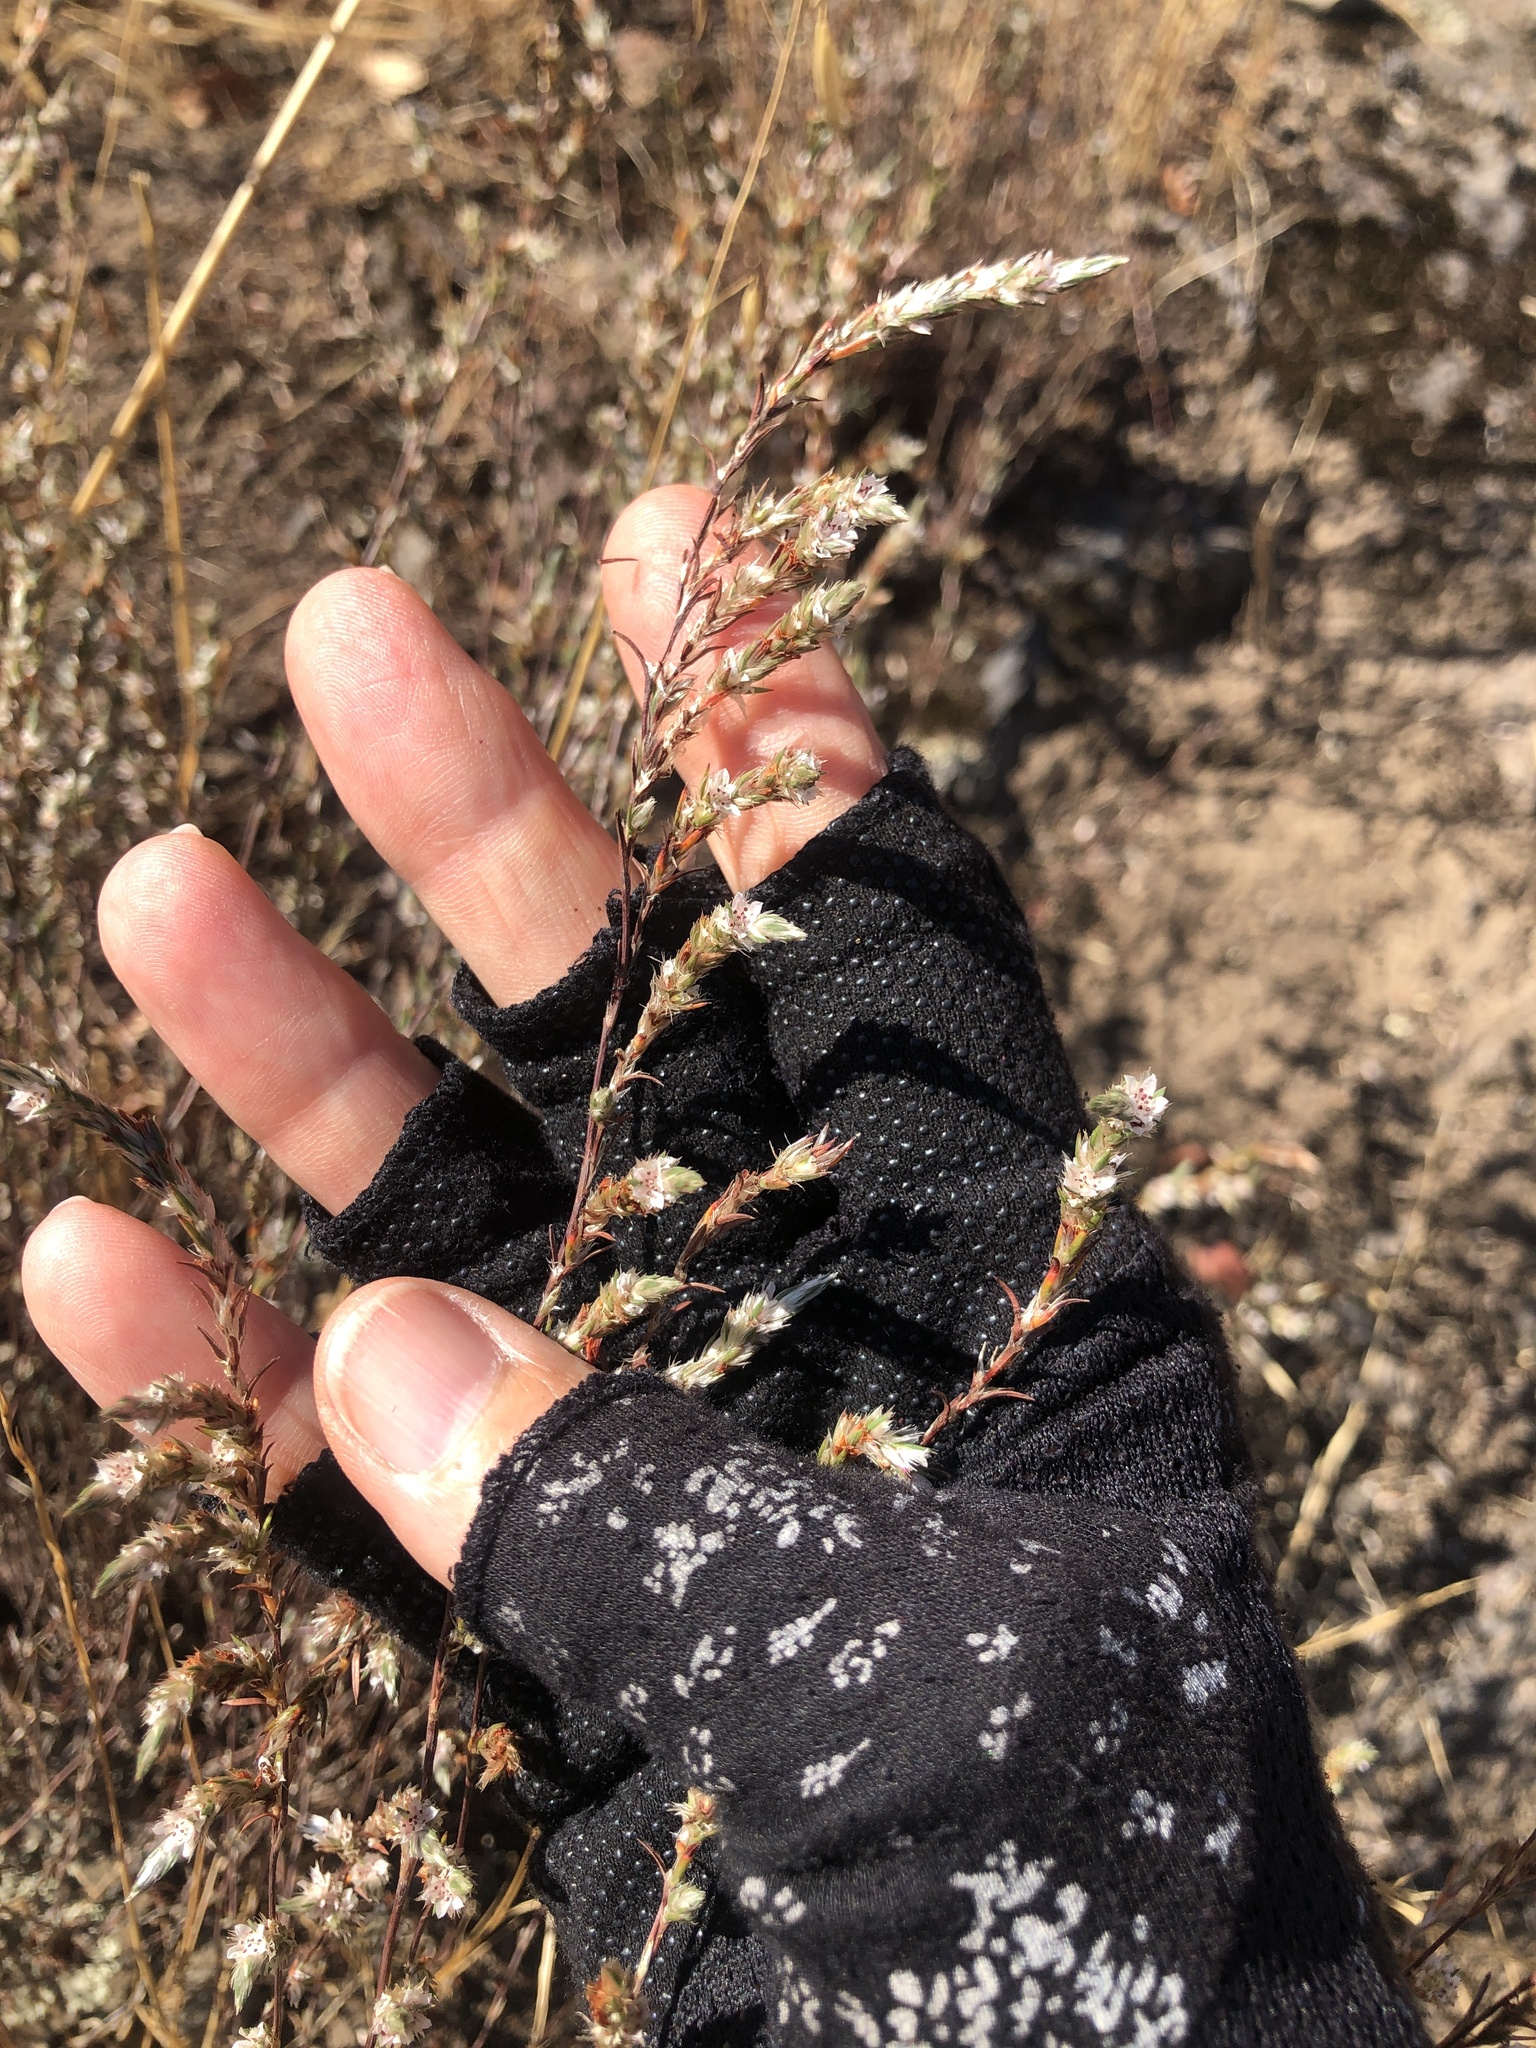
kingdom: Plantae
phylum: Tracheophyta
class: Magnoliopsida
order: Caryophyllales
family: Polygonaceae
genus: Polygonum
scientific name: Polygonum bolanderi
